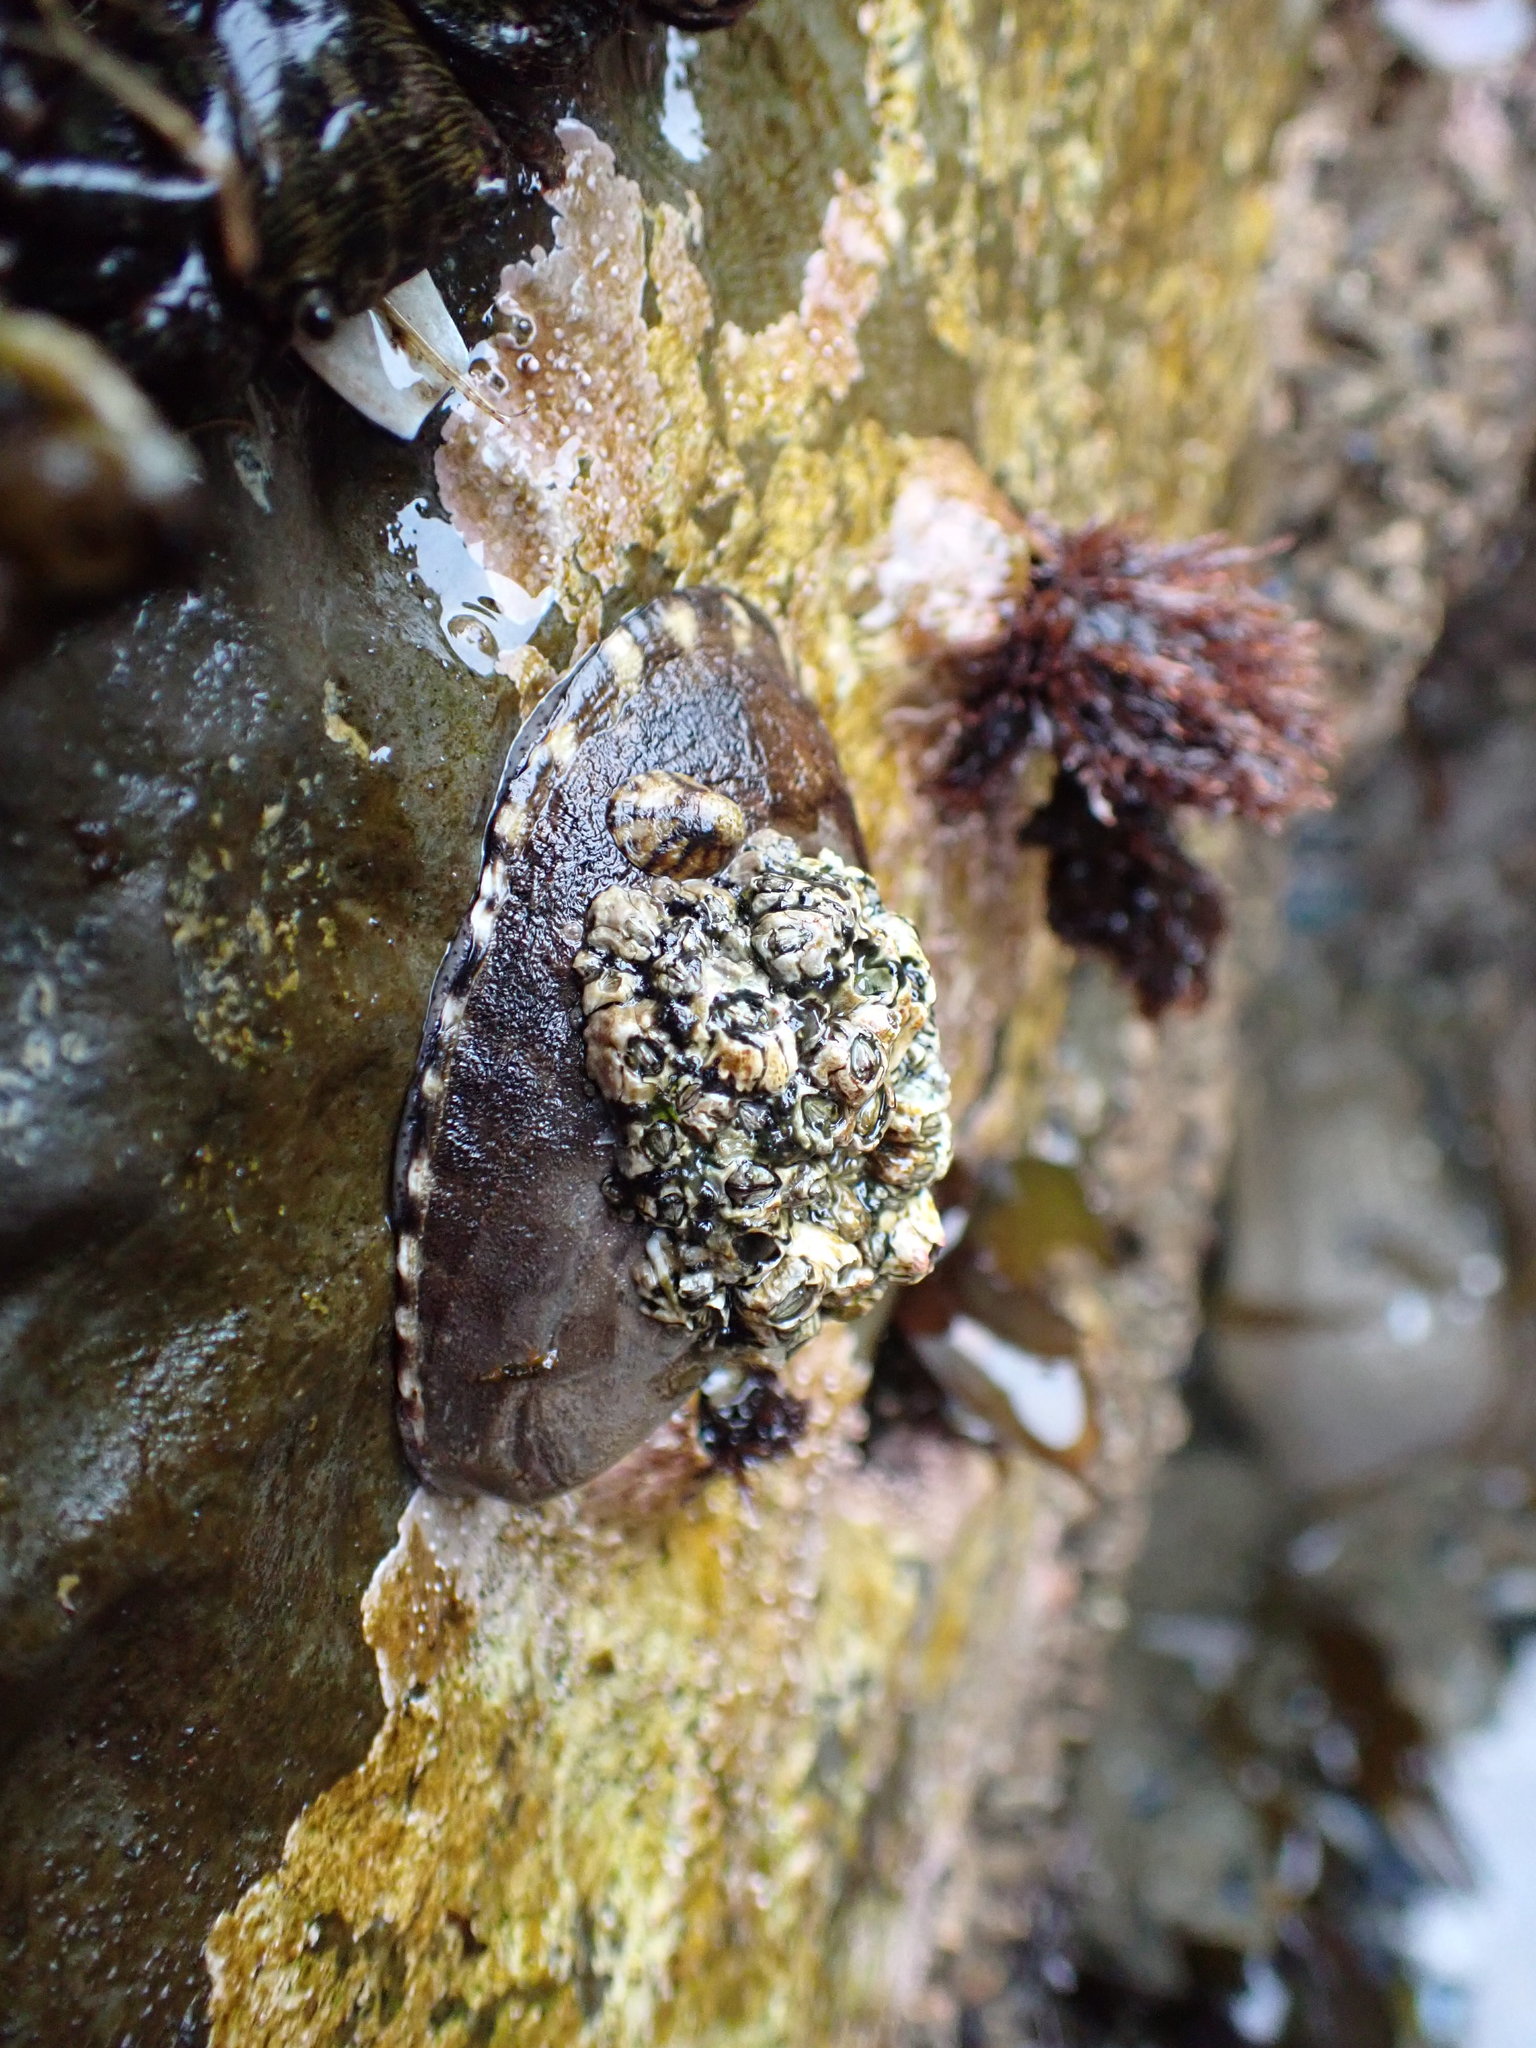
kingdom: Animalia
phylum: Mollusca
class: Gastropoda
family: Lottiidae
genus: Lottia
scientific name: Lottia gigantea
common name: Owl limpet
